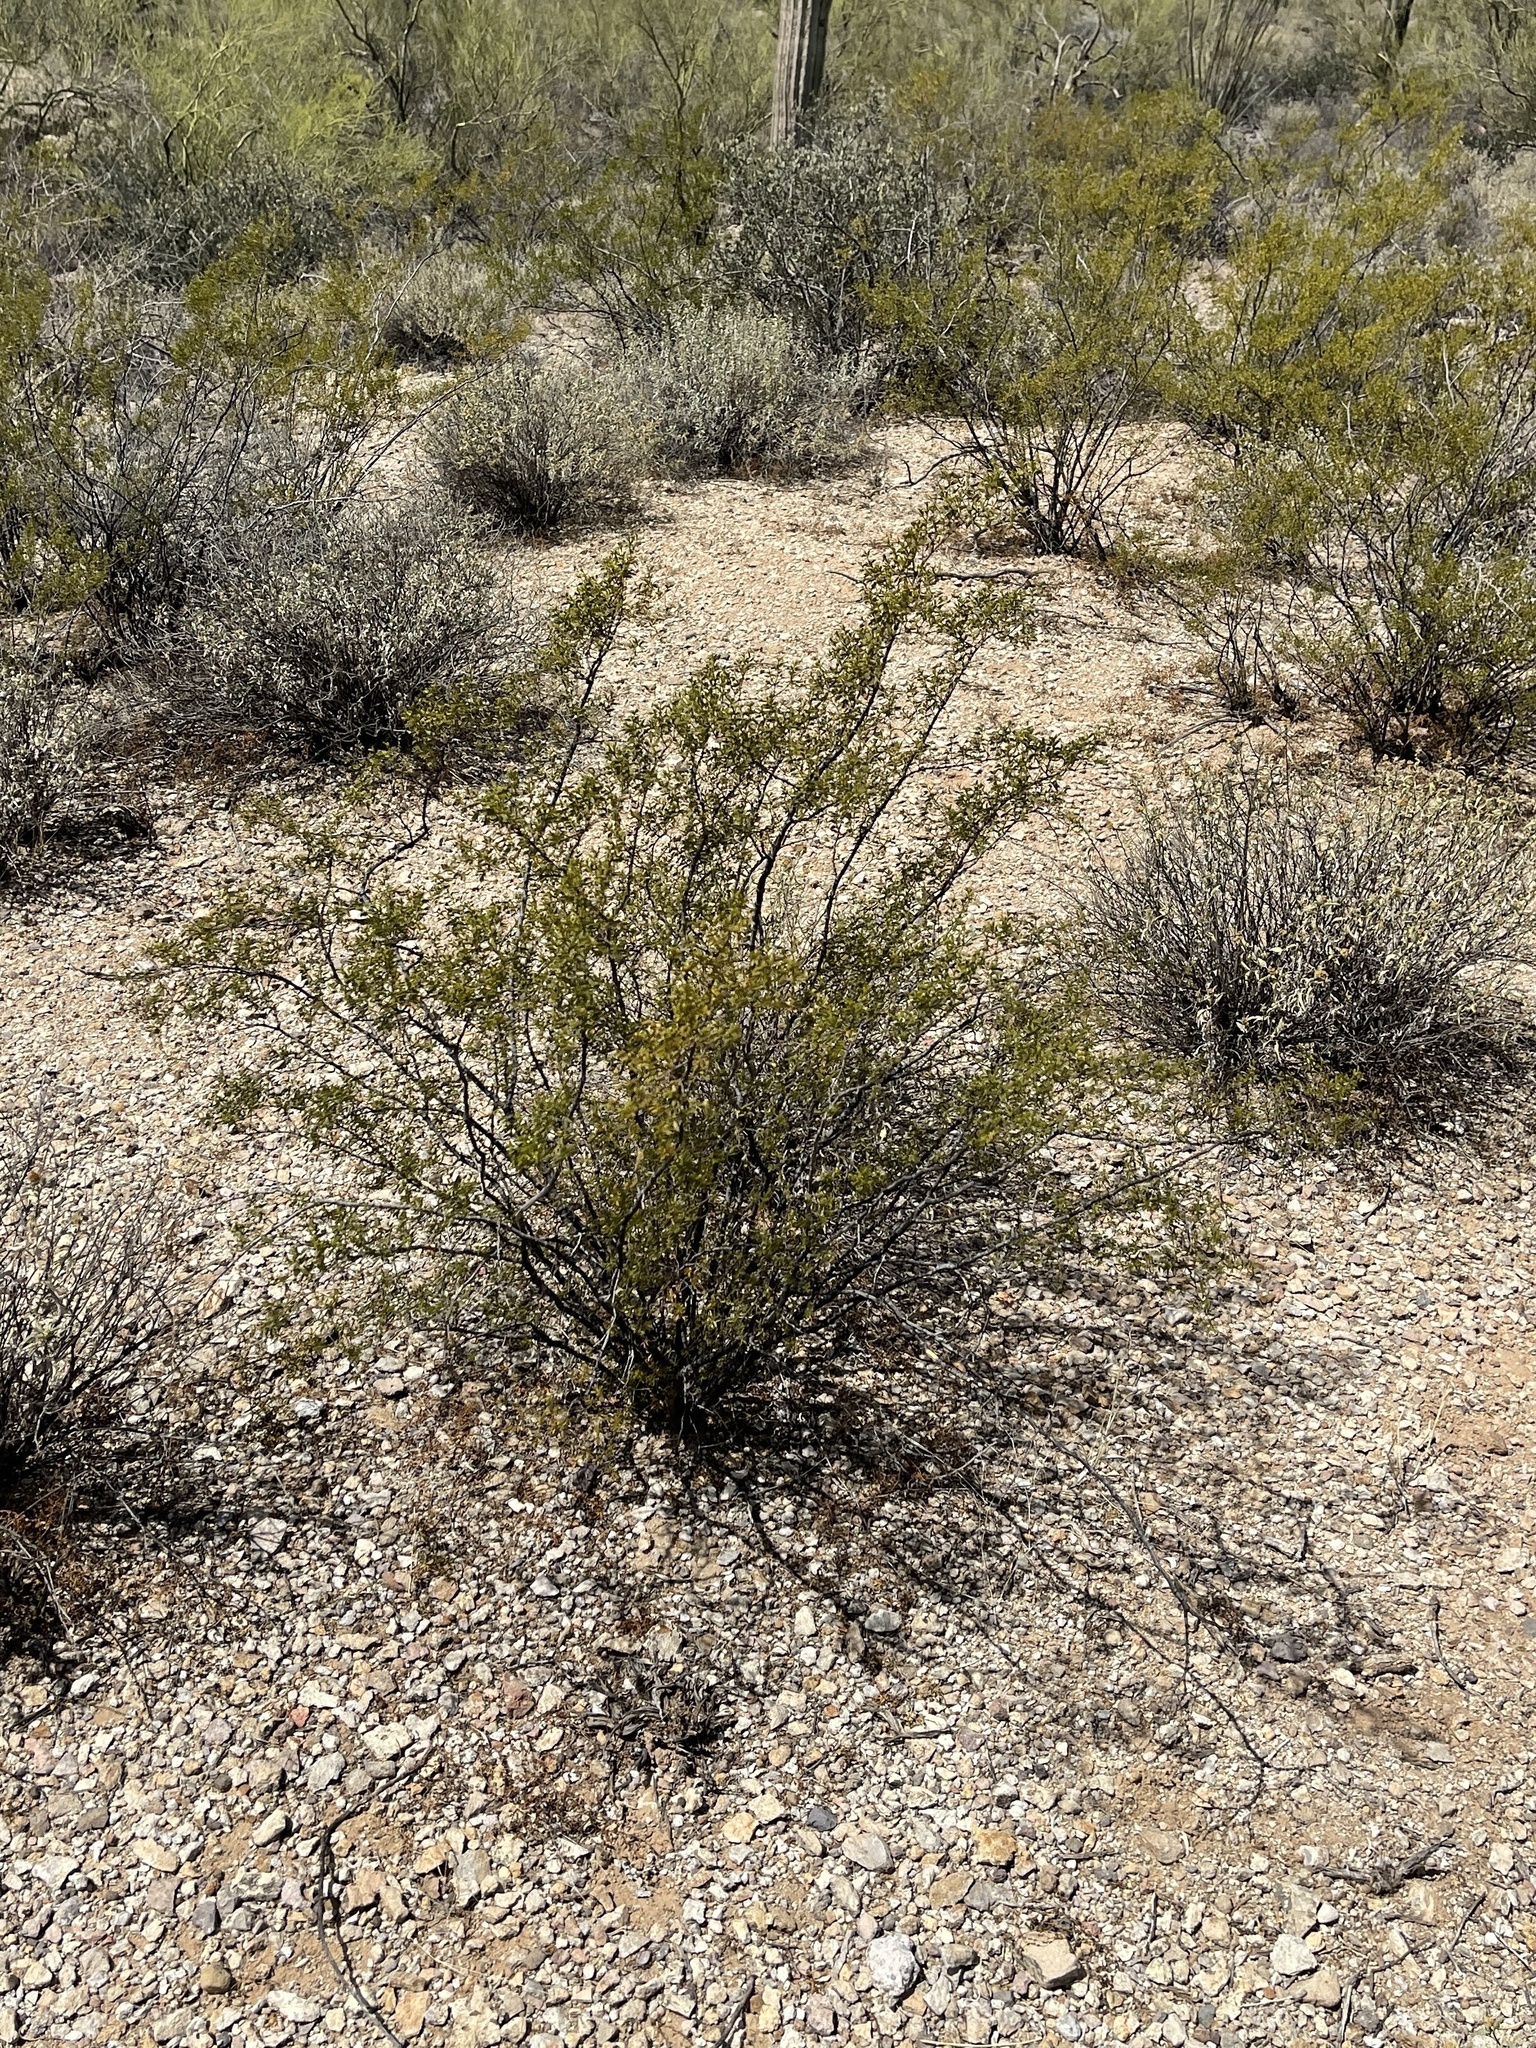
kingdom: Plantae
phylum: Tracheophyta
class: Magnoliopsida
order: Zygophyllales
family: Zygophyllaceae
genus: Larrea
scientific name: Larrea tridentata
